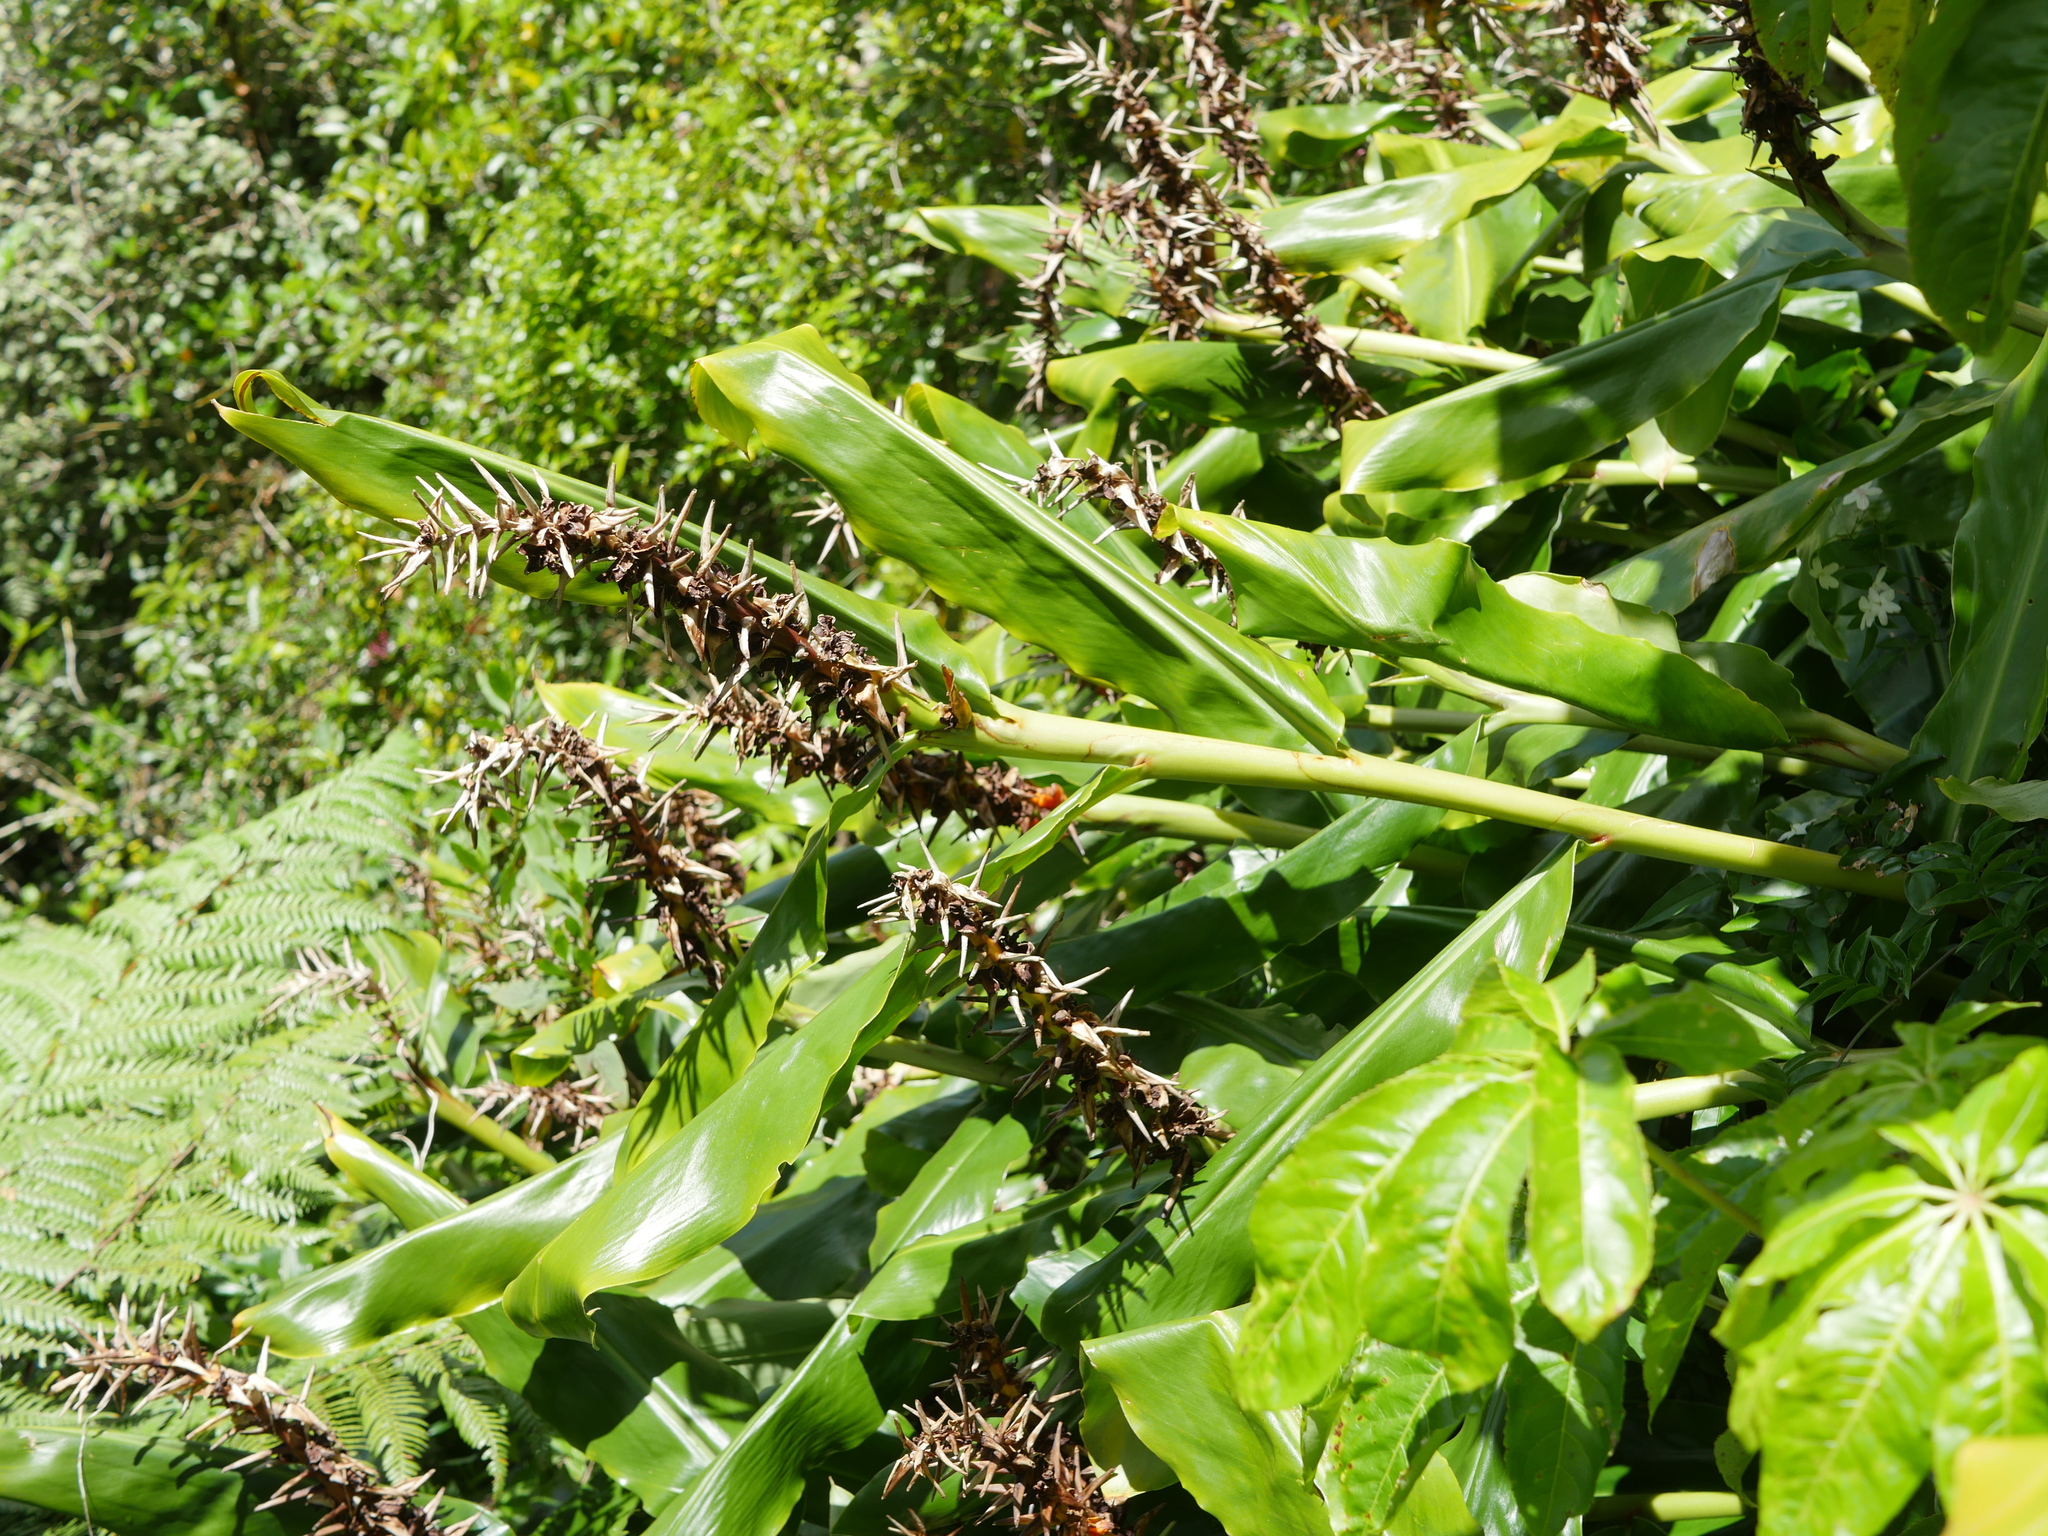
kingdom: Plantae
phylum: Tracheophyta
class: Liliopsida
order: Zingiberales
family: Zingiberaceae
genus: Hedychium
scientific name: Hedychium gardnerianum
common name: Himalayan ginger
